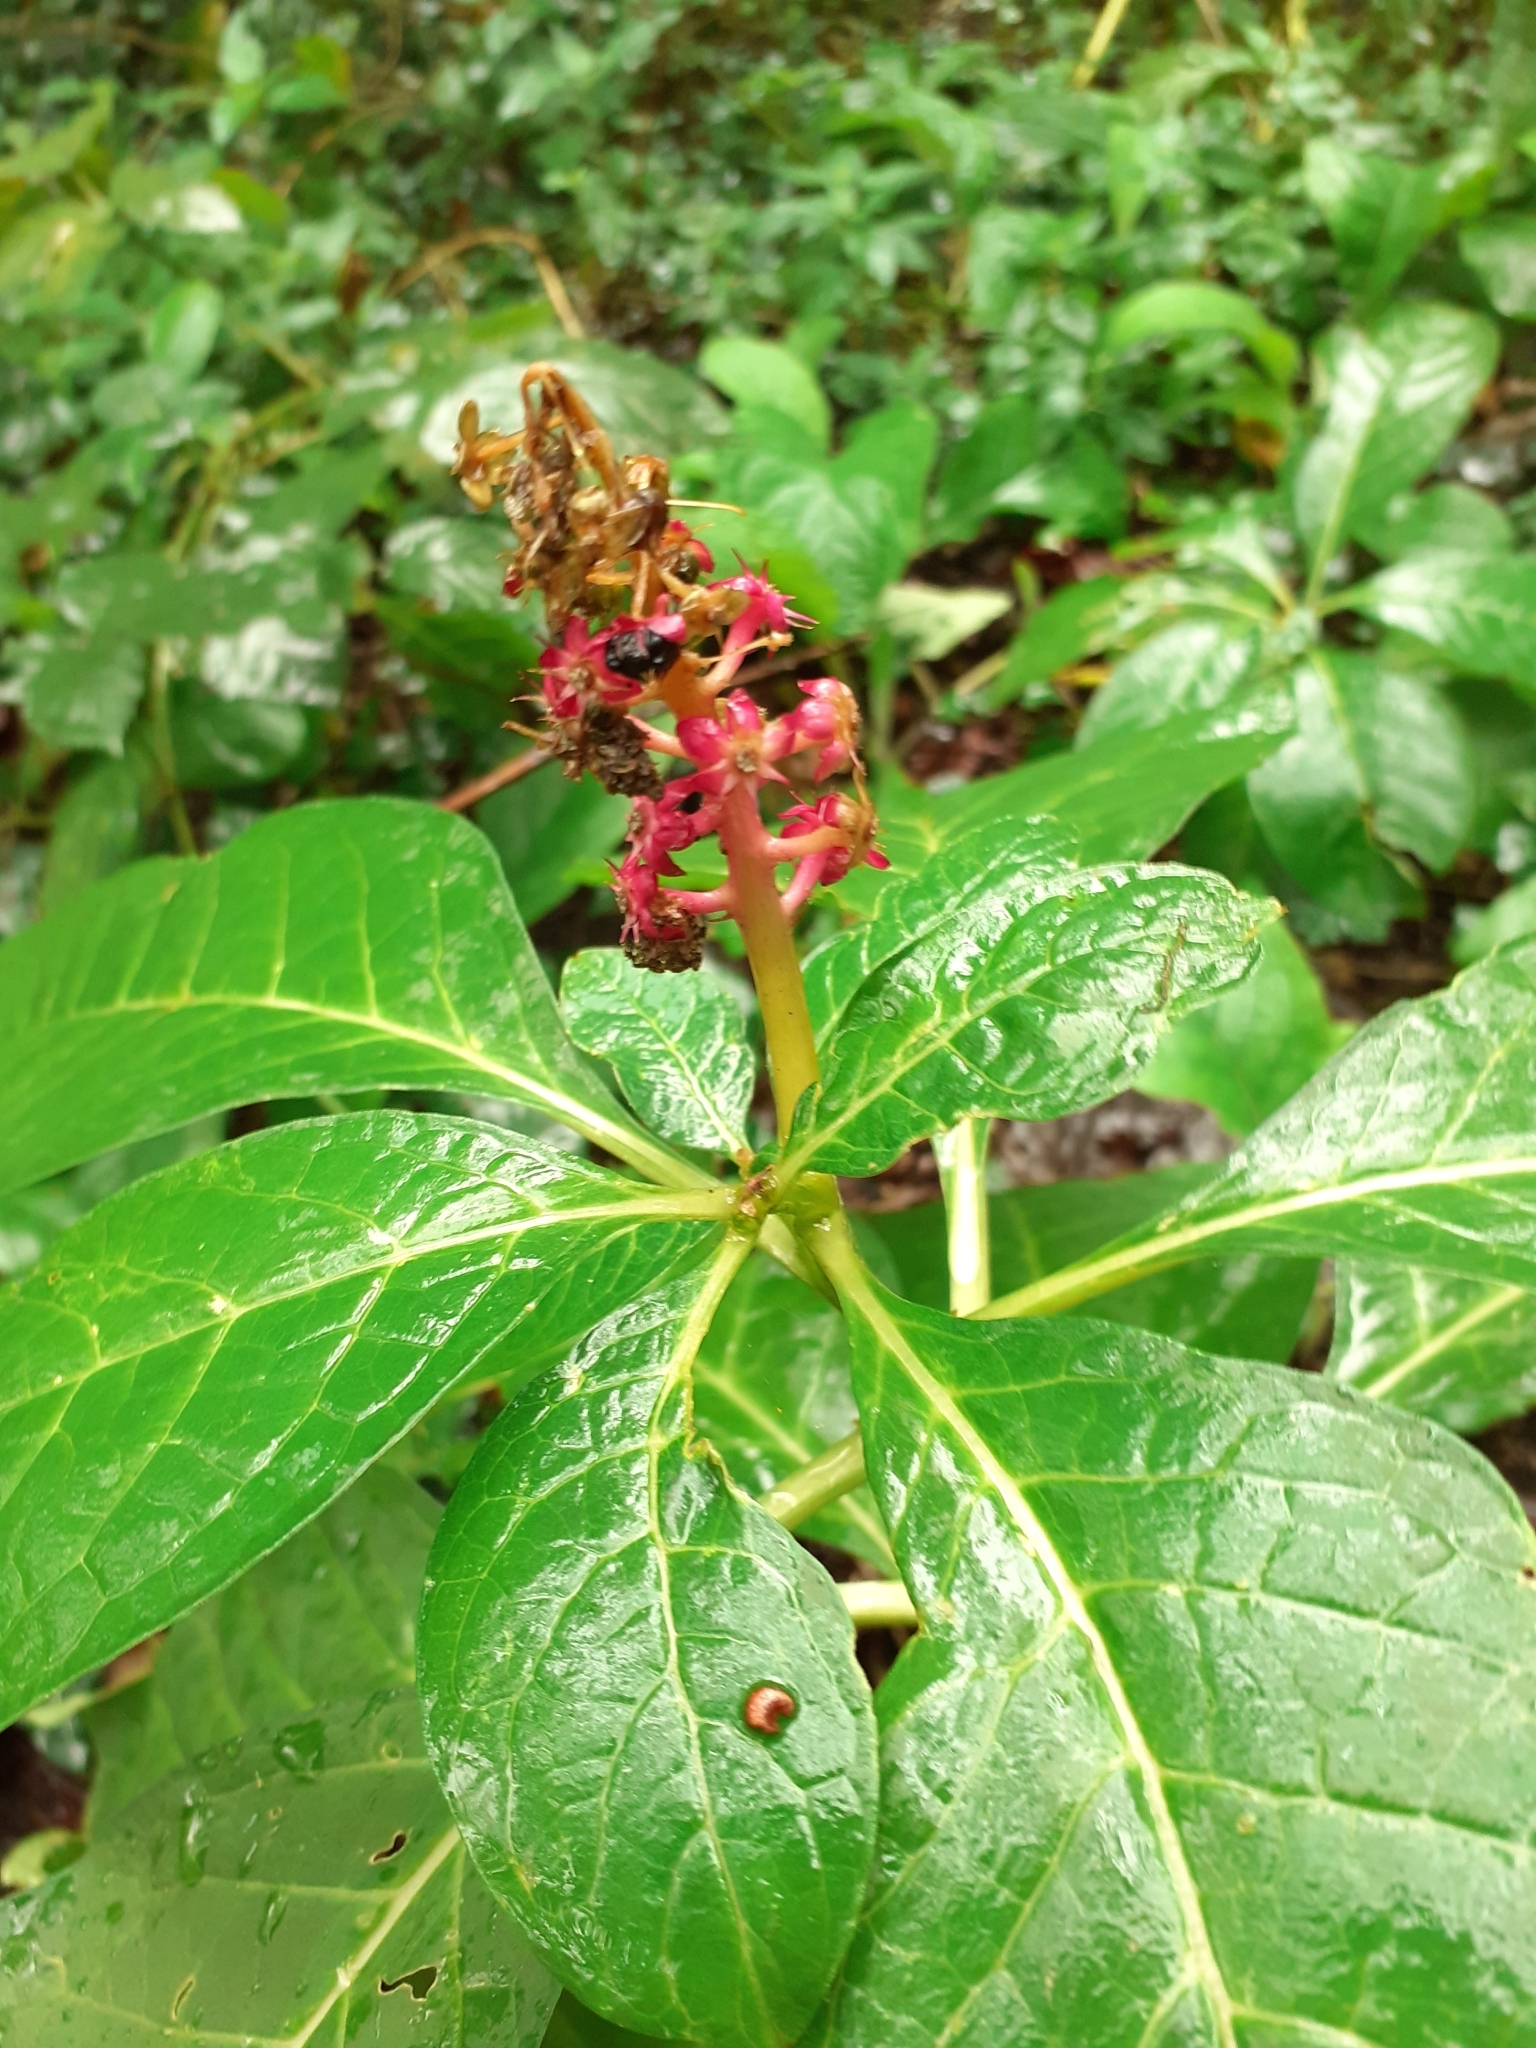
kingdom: Plantae
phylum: Tracheophyta
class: Magnoliopsida
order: Caryophyllales
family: Phytolaccaceae
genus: Phytolacca
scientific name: Phytolacca acinosa
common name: Indian pokeweed
